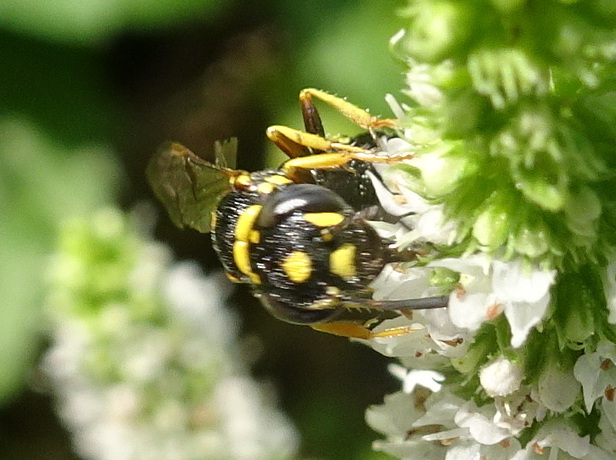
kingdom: Animalia
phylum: Arthropoda
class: Insecta
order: Hymenoptera
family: Crabronidae
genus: Philanthus
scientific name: Philanthus gibbosus
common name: Humped beewolf
